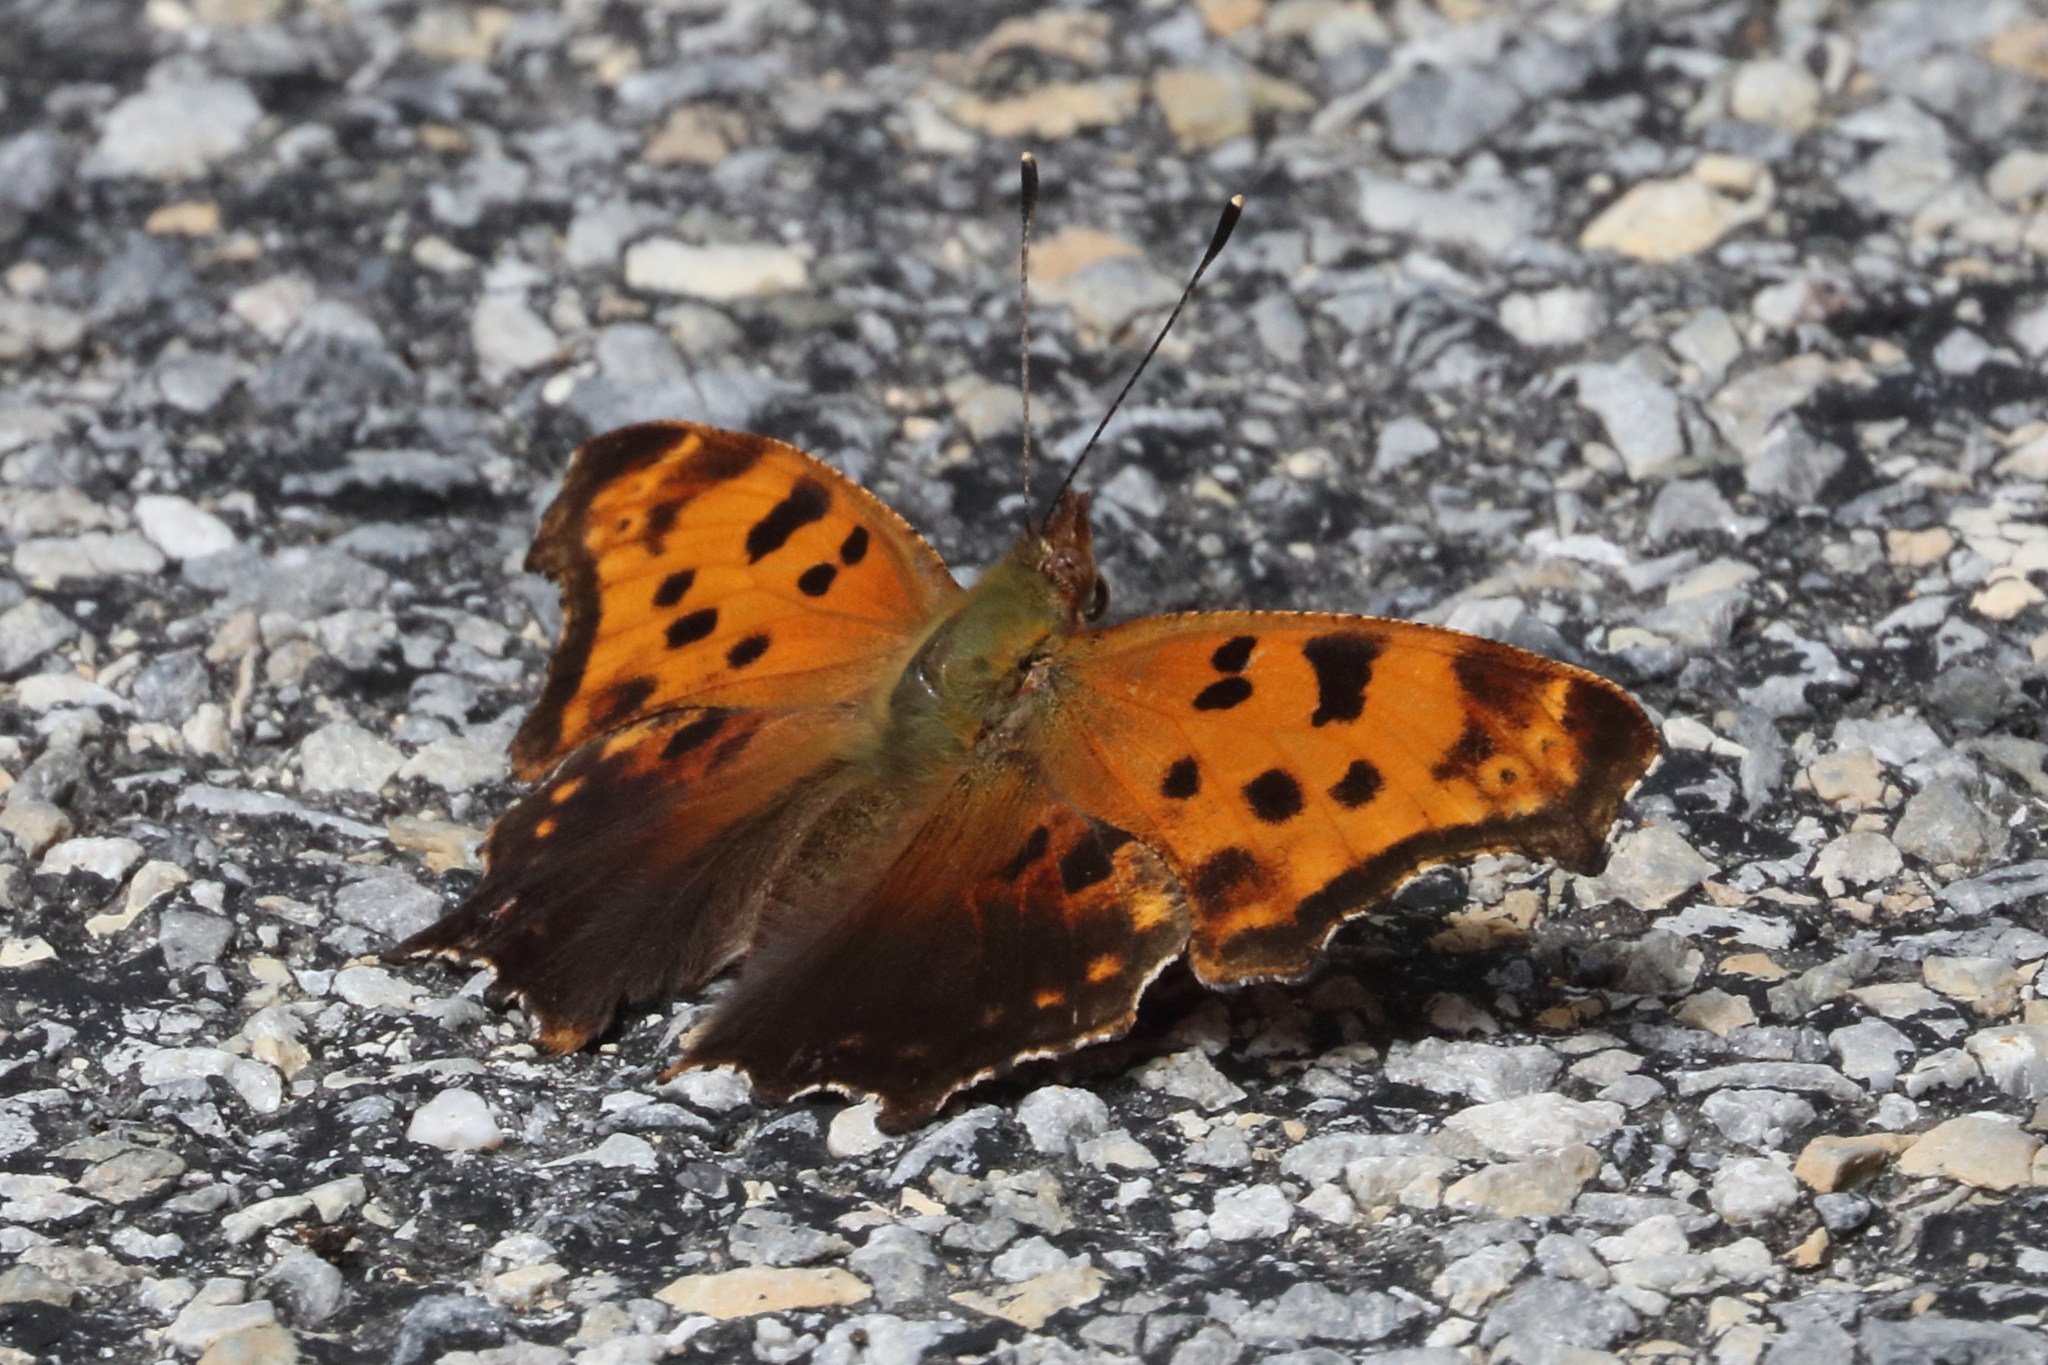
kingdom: Animalia
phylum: Arthropoda
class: Insecta
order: Lepidoptera
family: Nymphalidae
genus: Polygonia
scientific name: Polygonia comma
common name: Eastern comma
